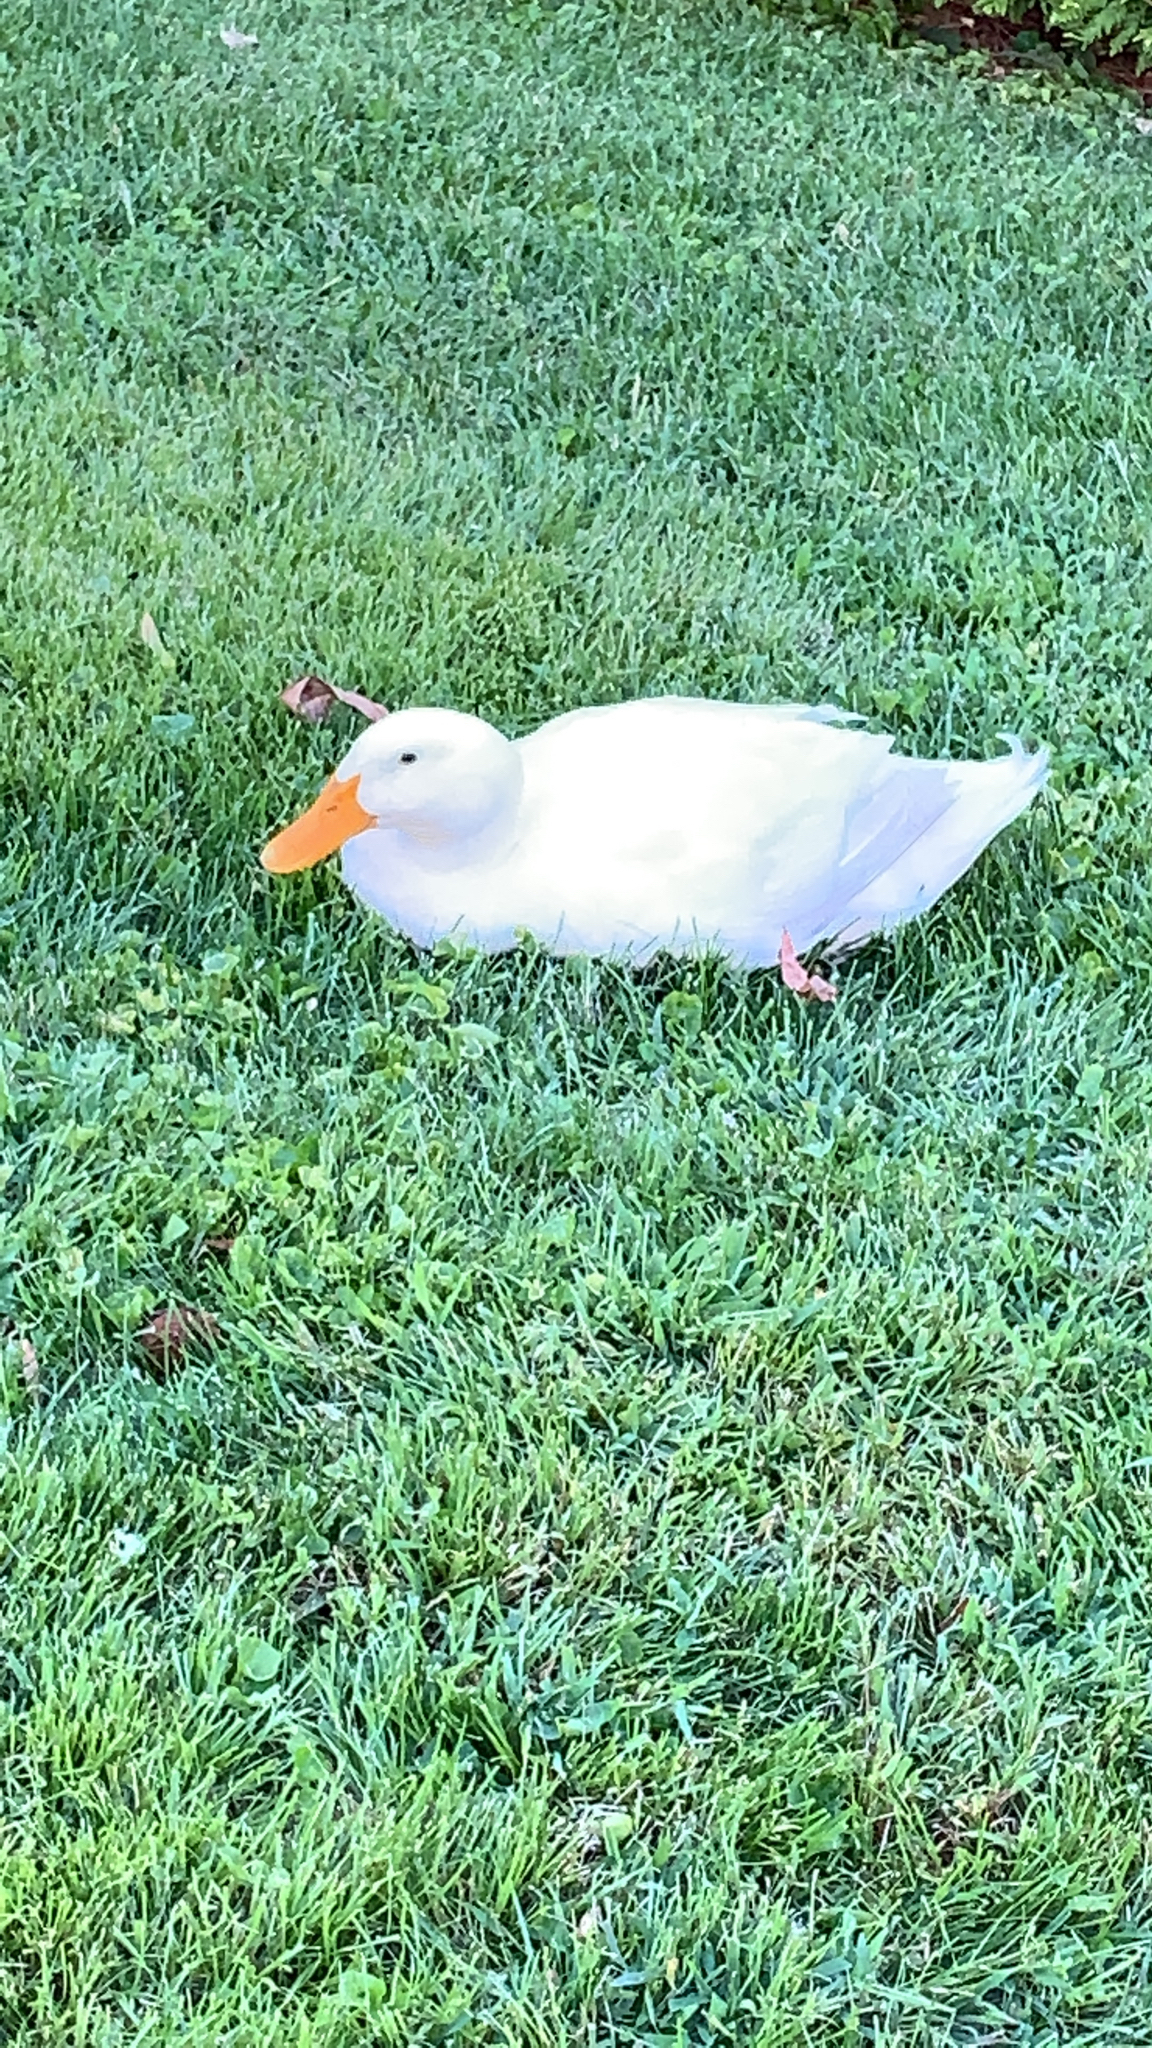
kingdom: Animalia
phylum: Chordata
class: Aves
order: Anseriformes
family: Anatidae
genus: Anas
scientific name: Anas platyrhynchos
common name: Mallard
